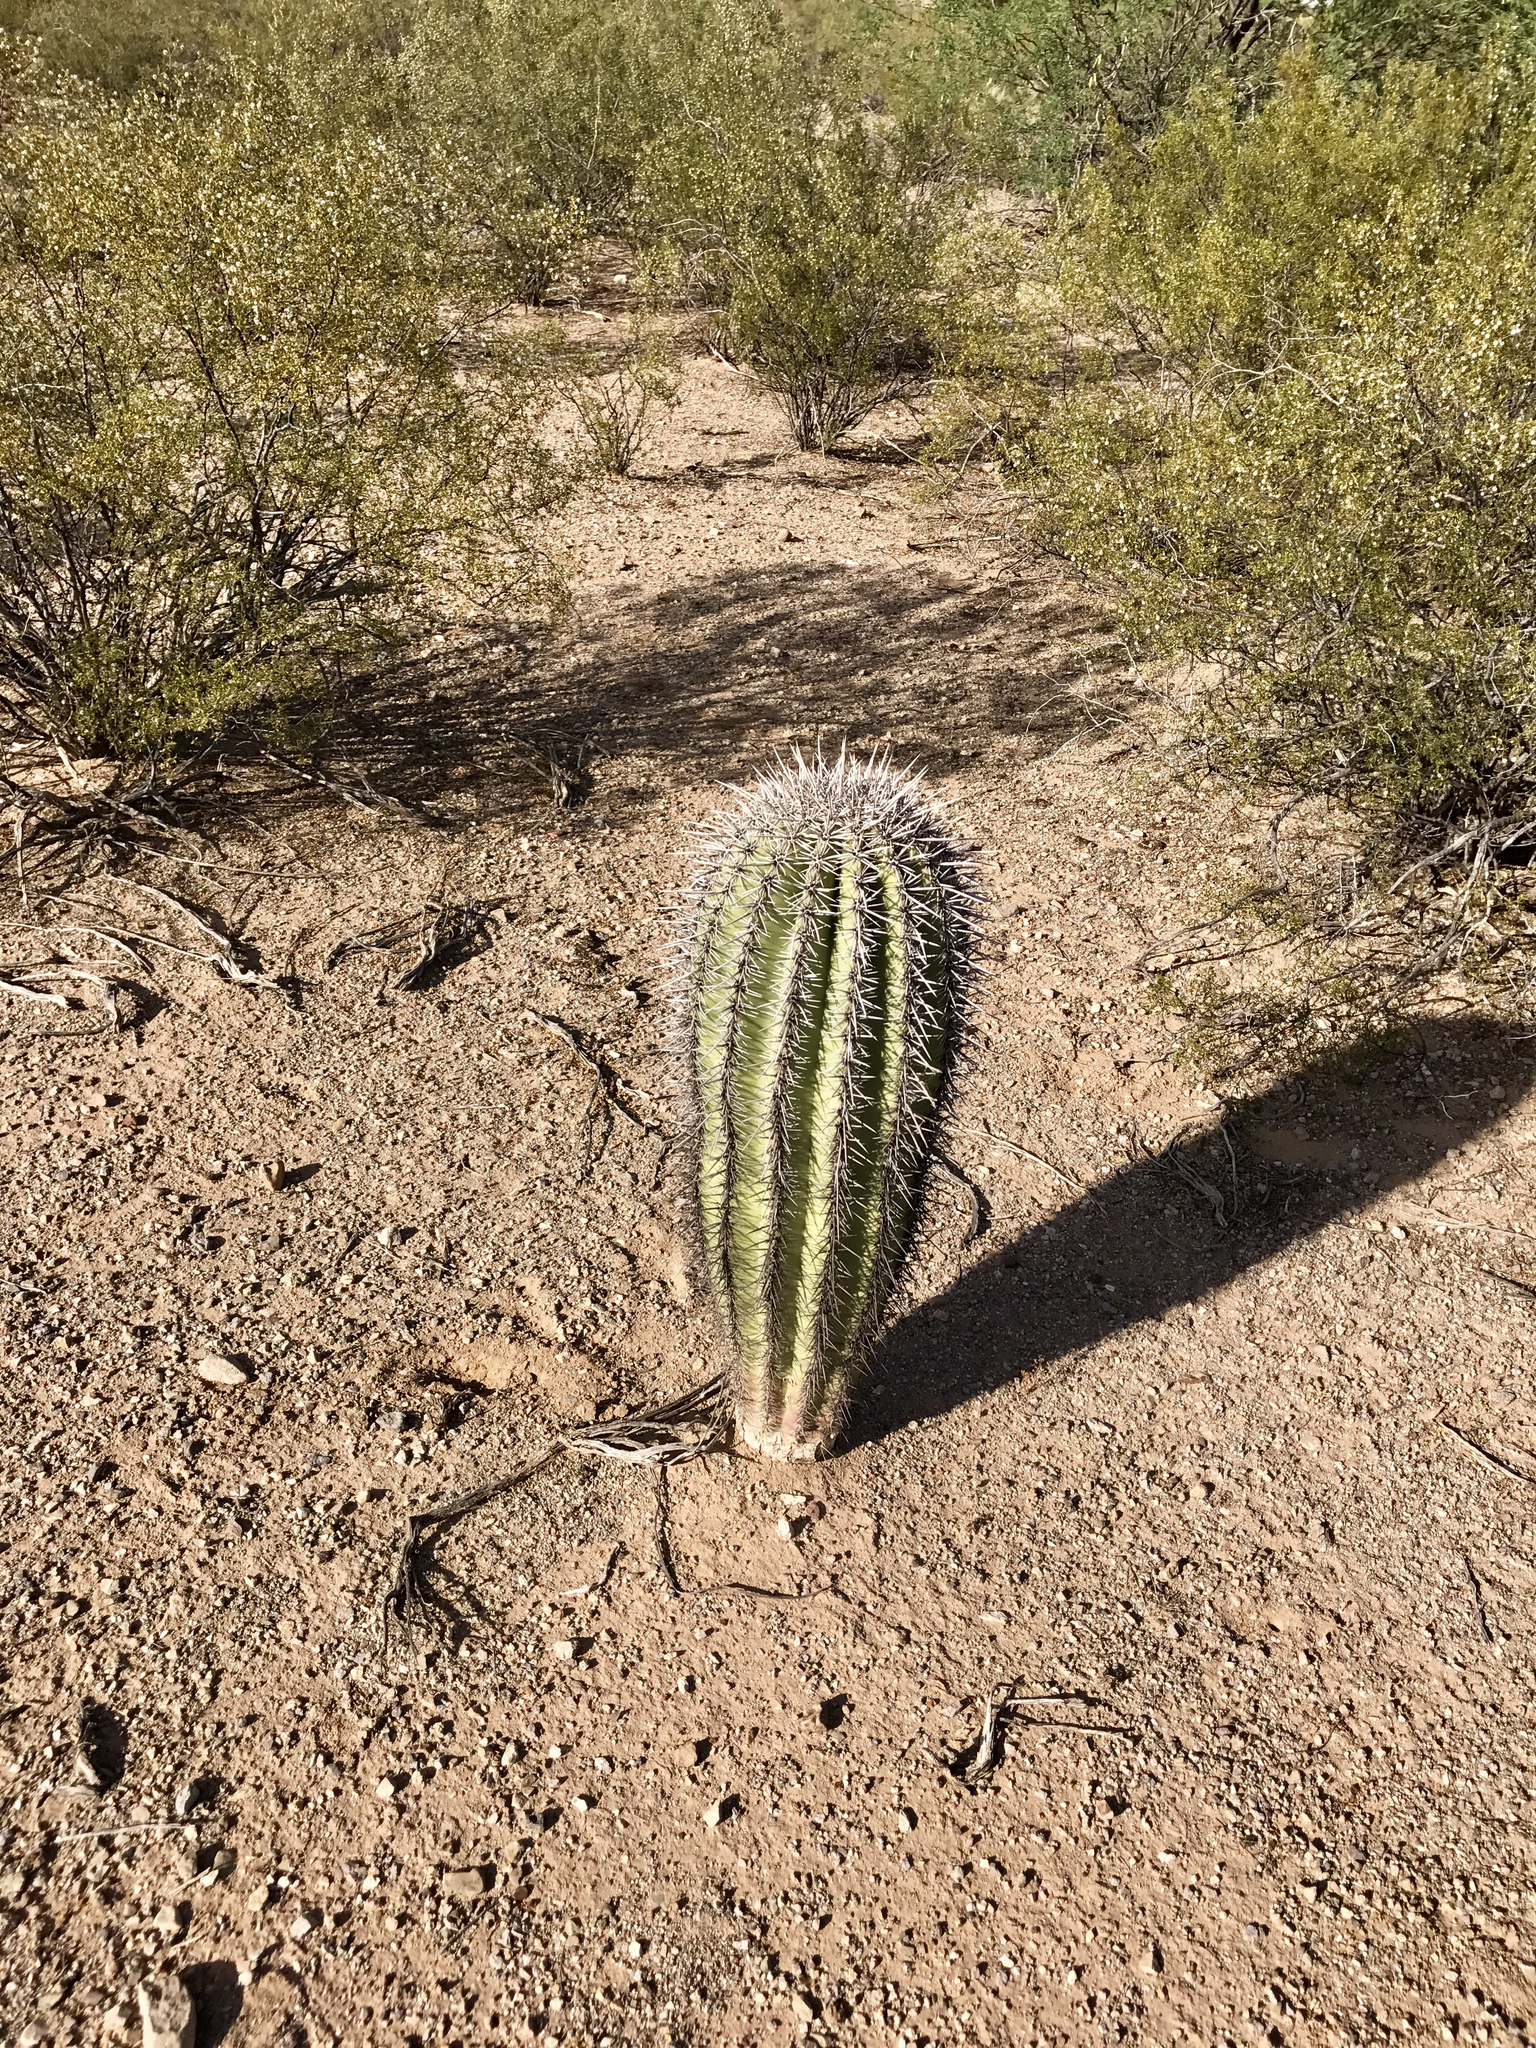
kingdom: Plantae
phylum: Tracheophyta
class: Magnoliopsida
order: Caryophyllales
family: Cactaceae
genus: Carnegiea
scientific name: Carnegiea gigantea
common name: Saguaro
